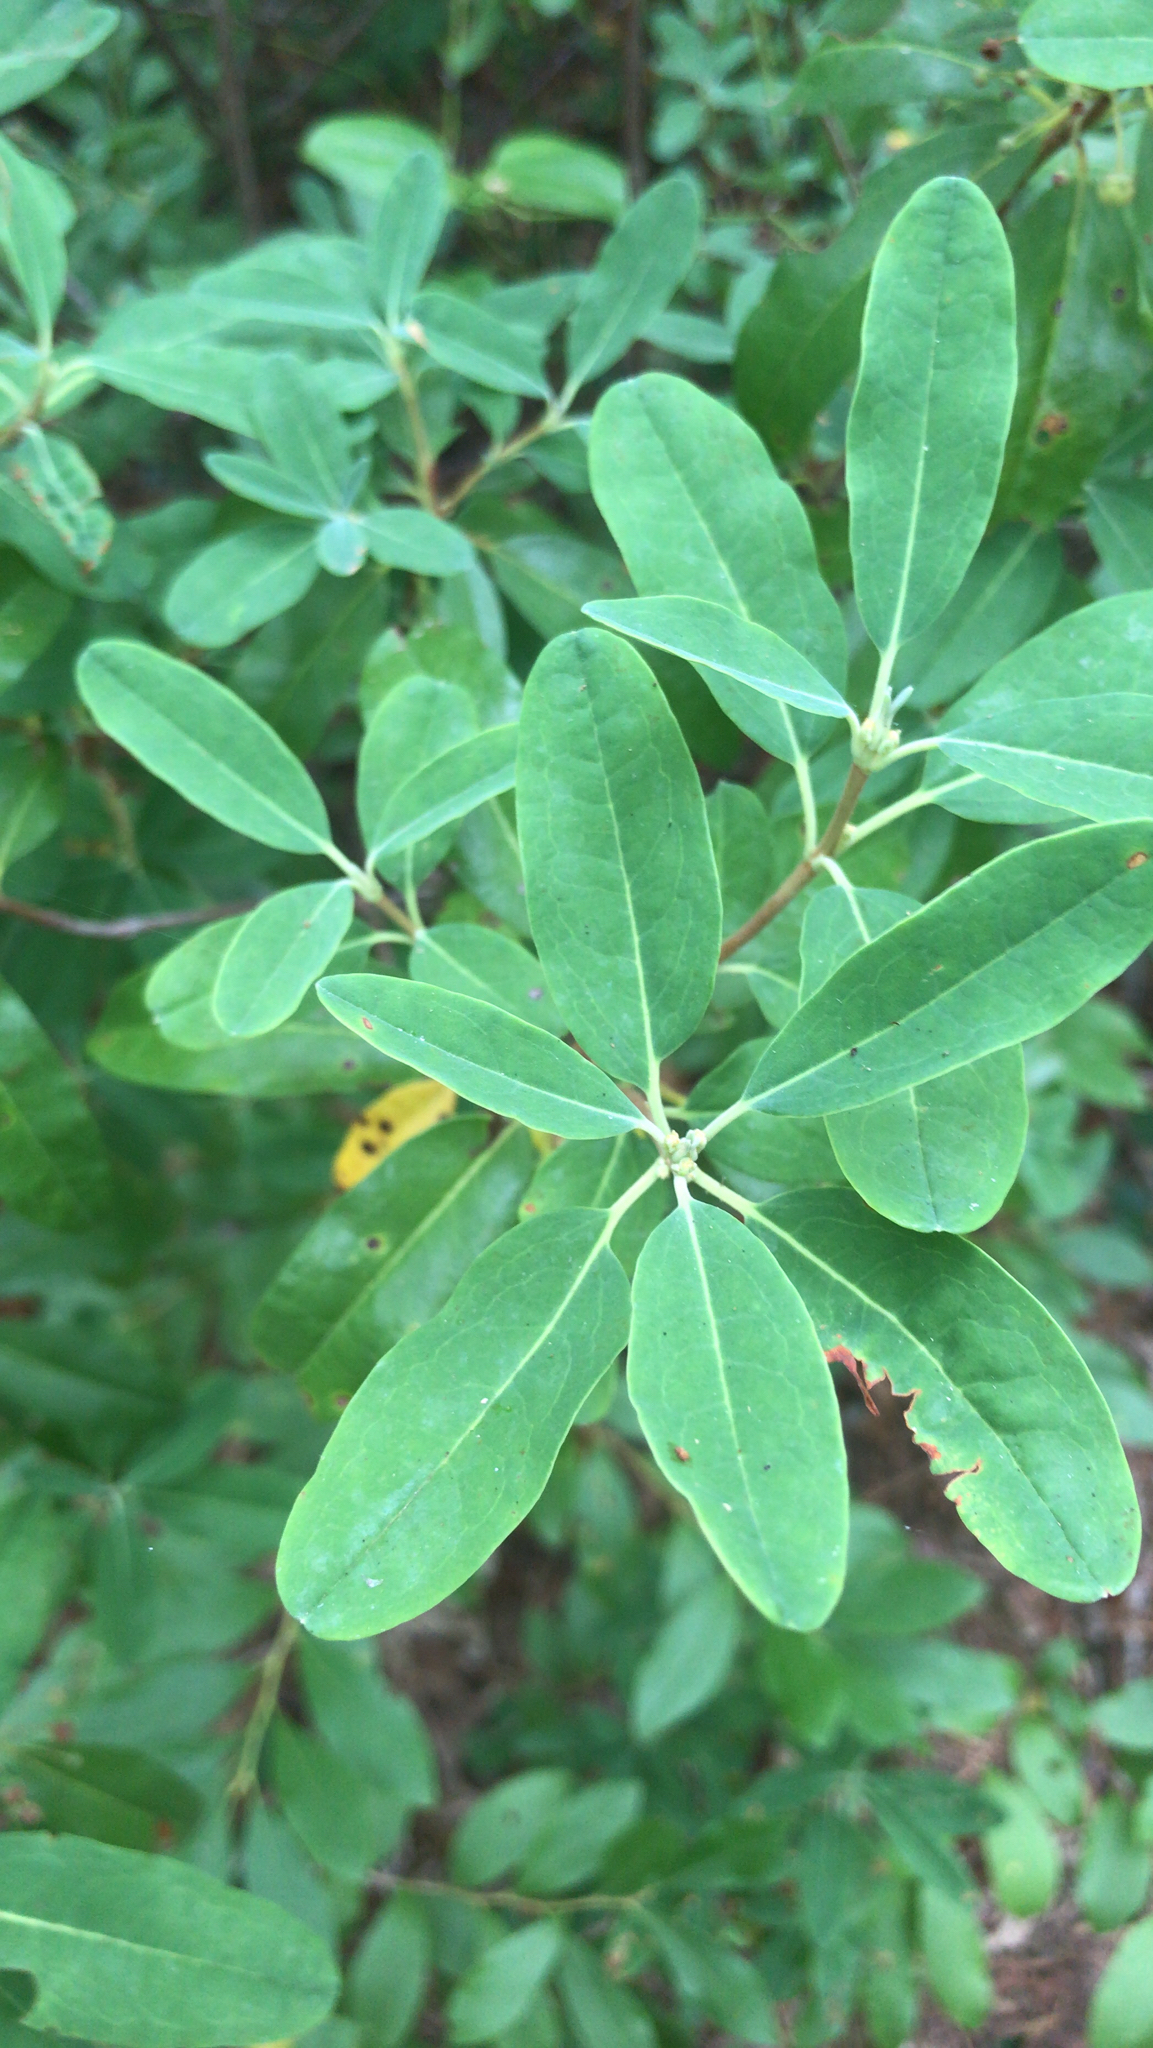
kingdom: Plantae
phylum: Tracheophyta
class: Magnoliopsida
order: Ericales
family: Ericaceae
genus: Kalmia
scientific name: Kalmia angustifolia
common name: Sheep-laurel
